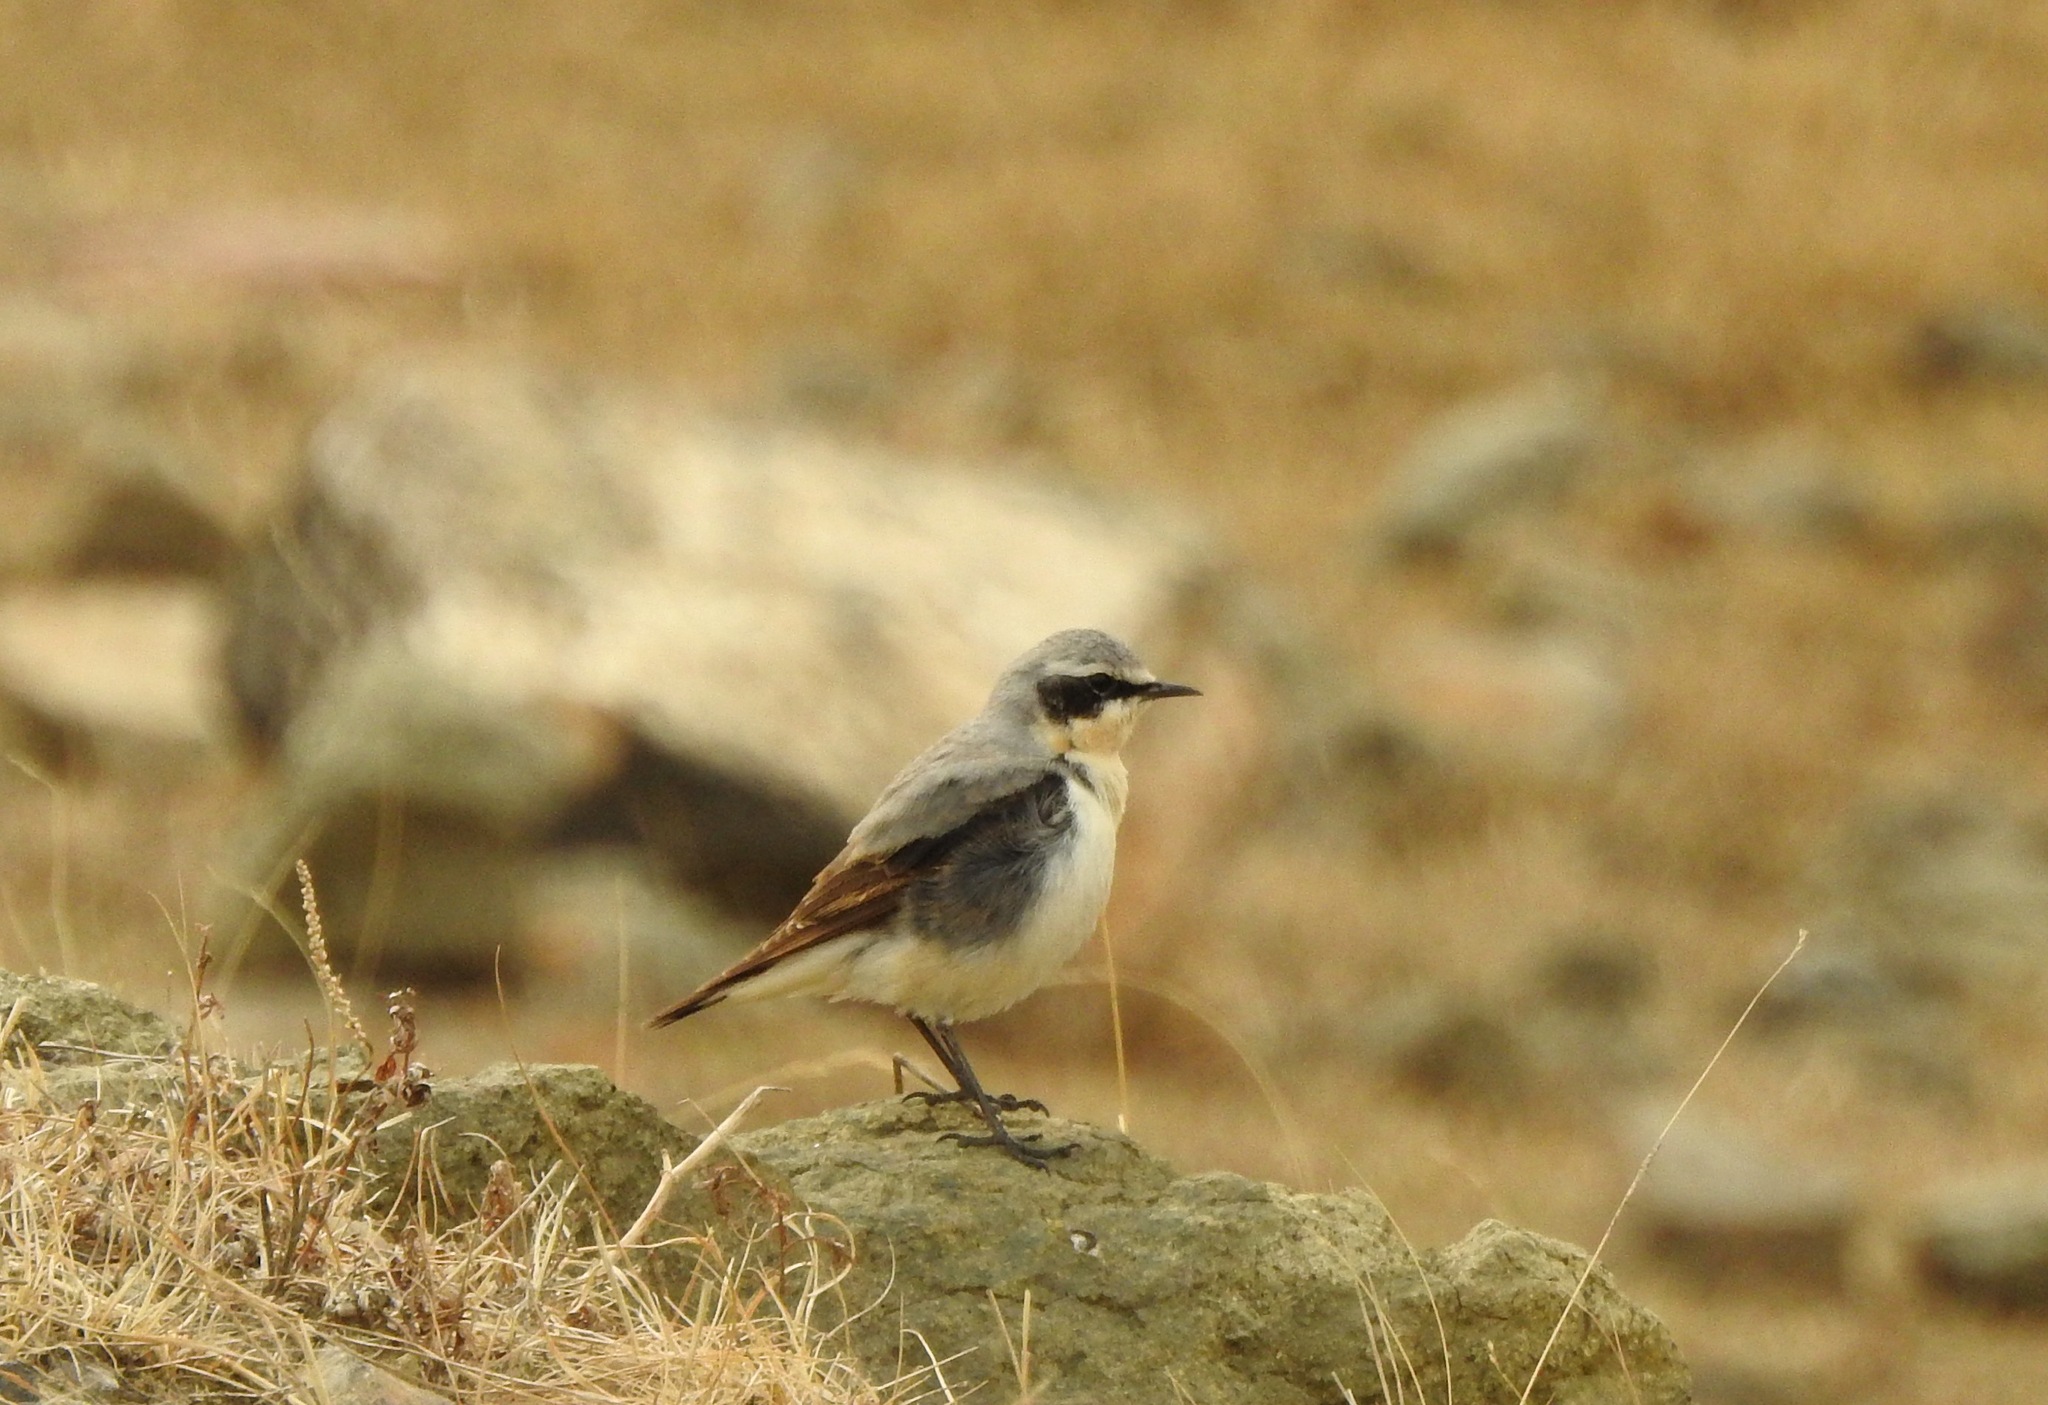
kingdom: Animalia
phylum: Chordata
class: Aves
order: Passeriformes
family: Muscicapidae
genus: Oenanthe
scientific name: Oenanthe oenanthe
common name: Northern wheatear
